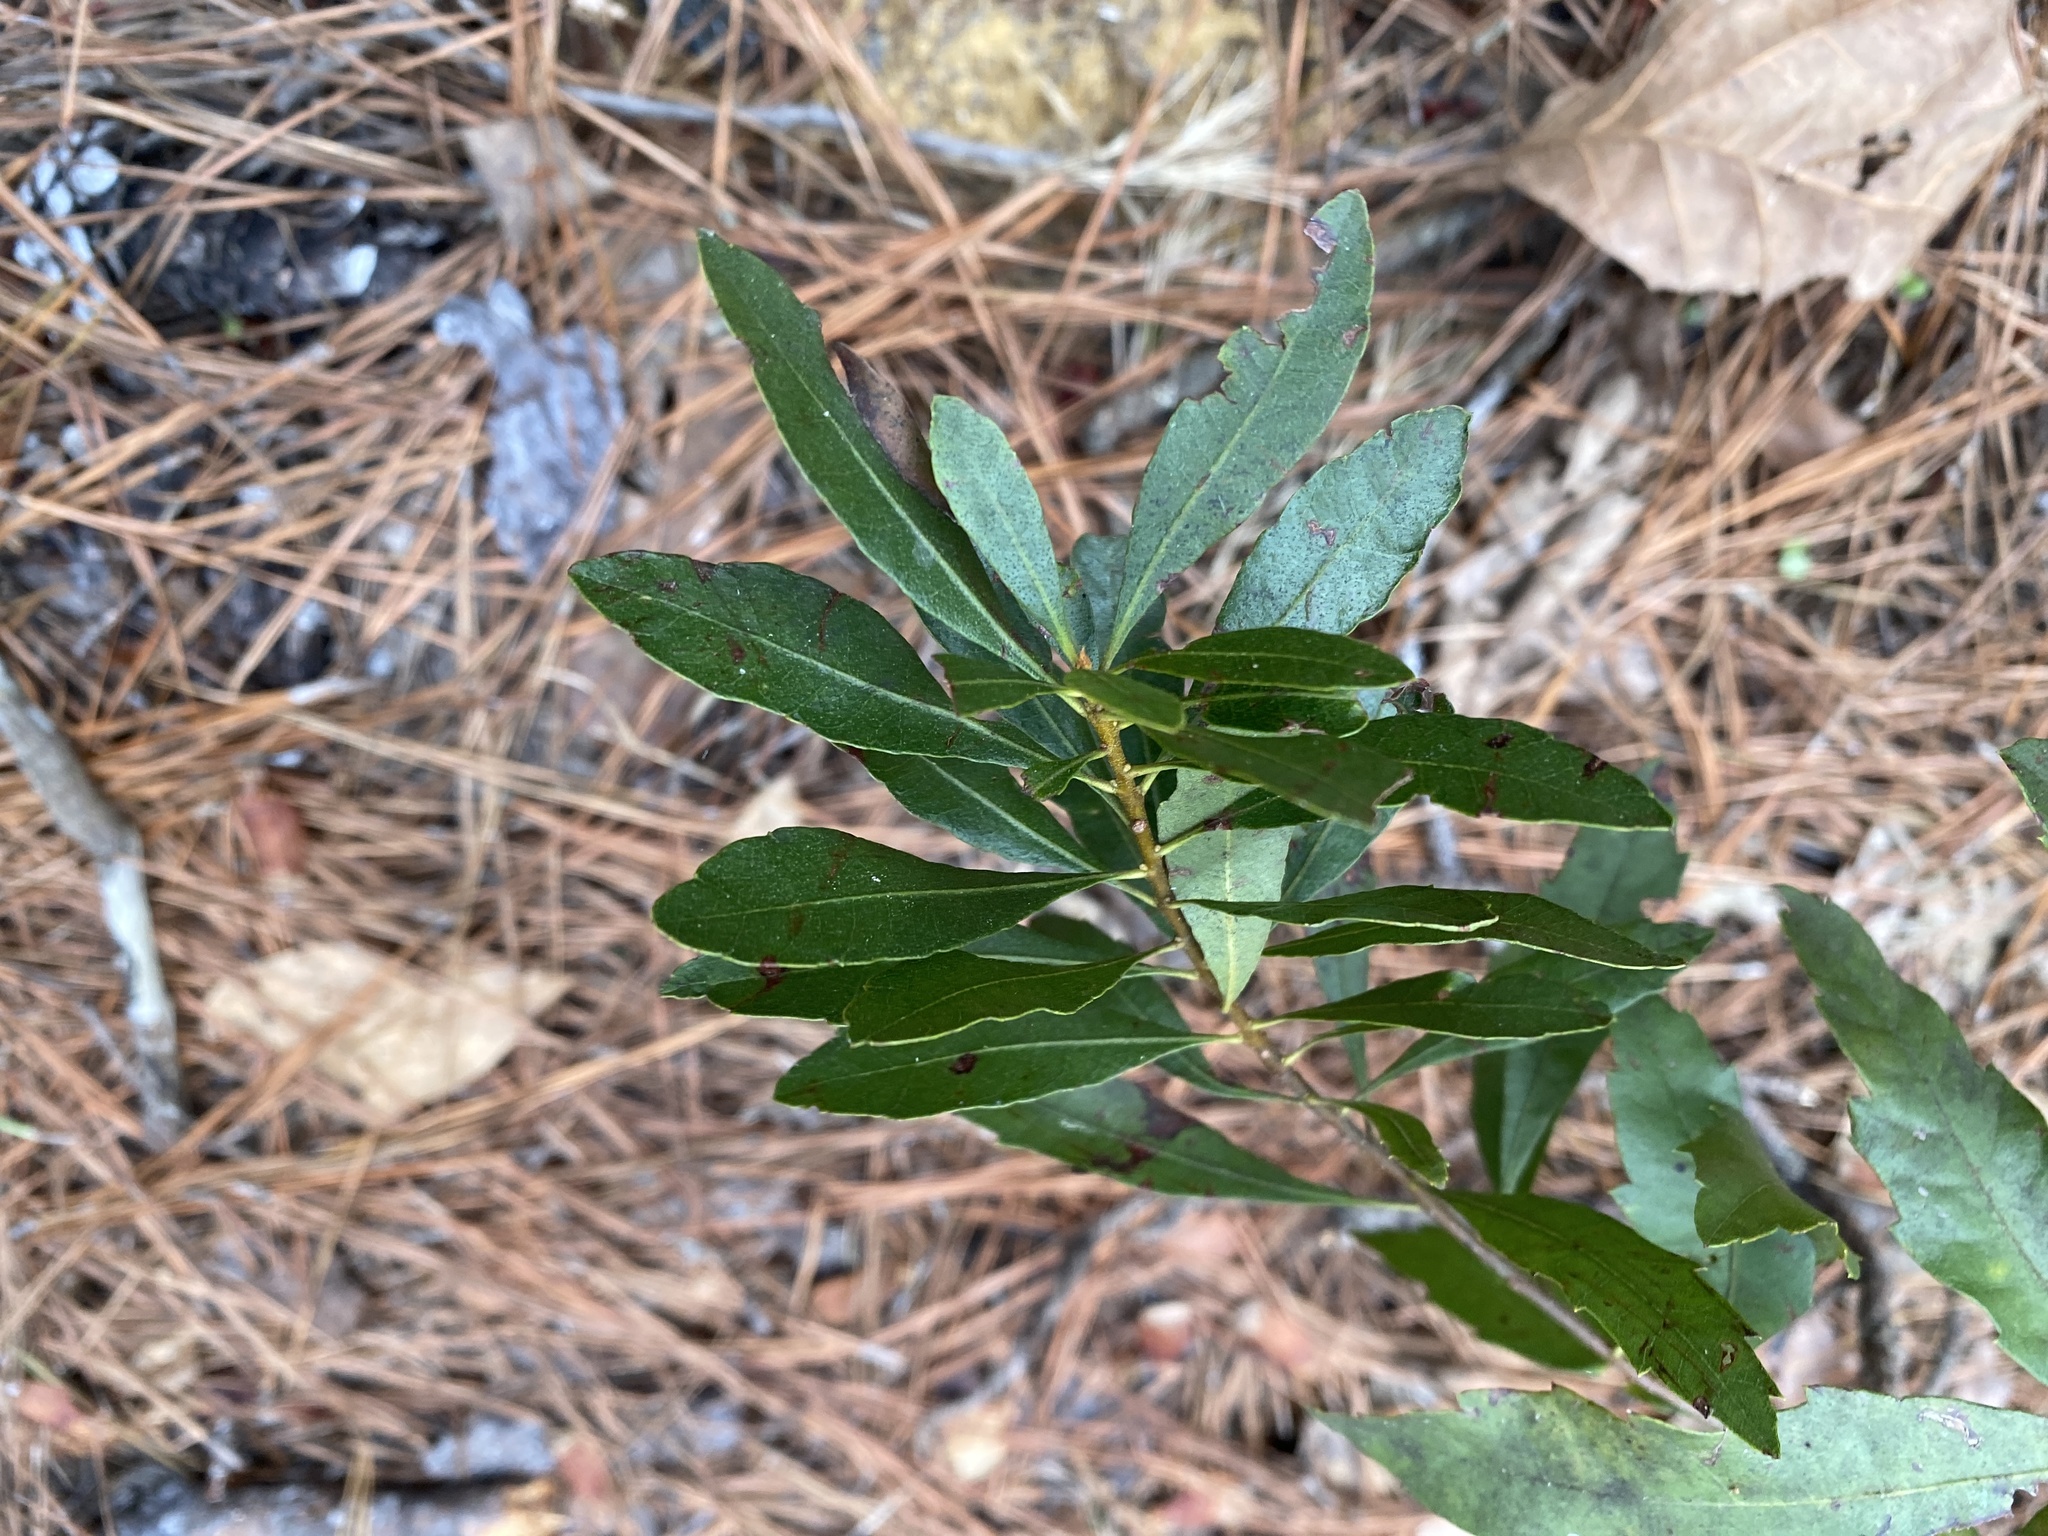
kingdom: Plantae
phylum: Tracheophyta
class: Magnoliopsida
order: Fagales
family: Myricaceae
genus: Morella
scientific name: Morella cerifera
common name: Wax myrtle
